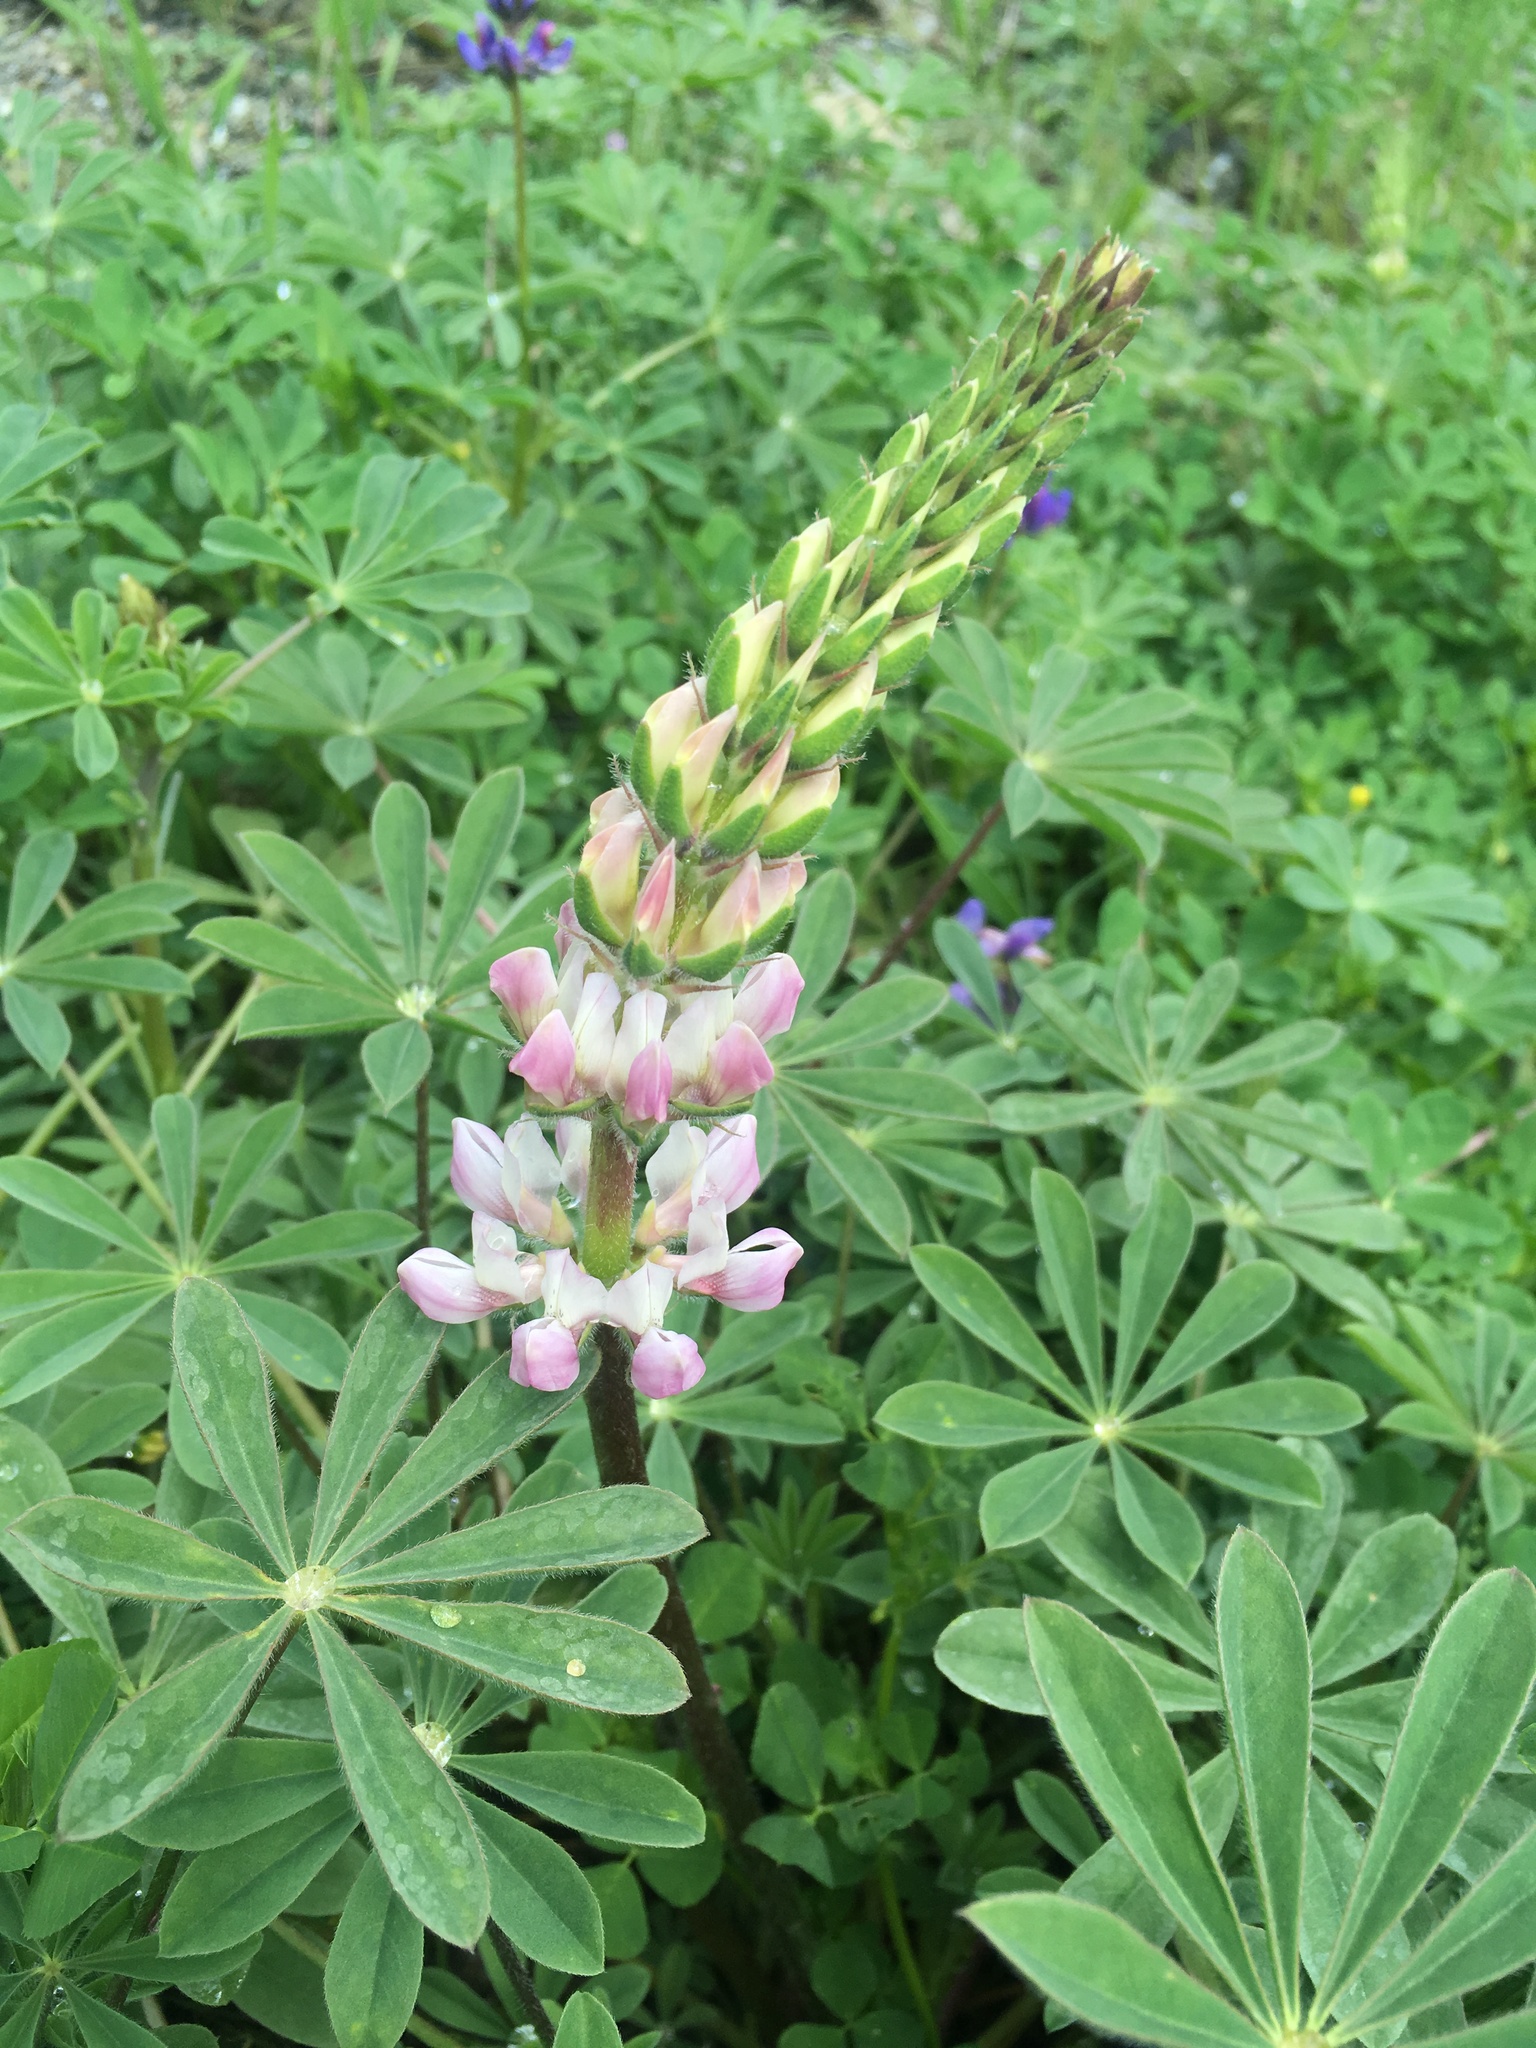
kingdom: Plantae
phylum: Tracheophyta
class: Magnoliopsida
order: Fabales
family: Fabaceae
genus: Lupinus
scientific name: Lupinus microcarpus
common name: Chick lupine
